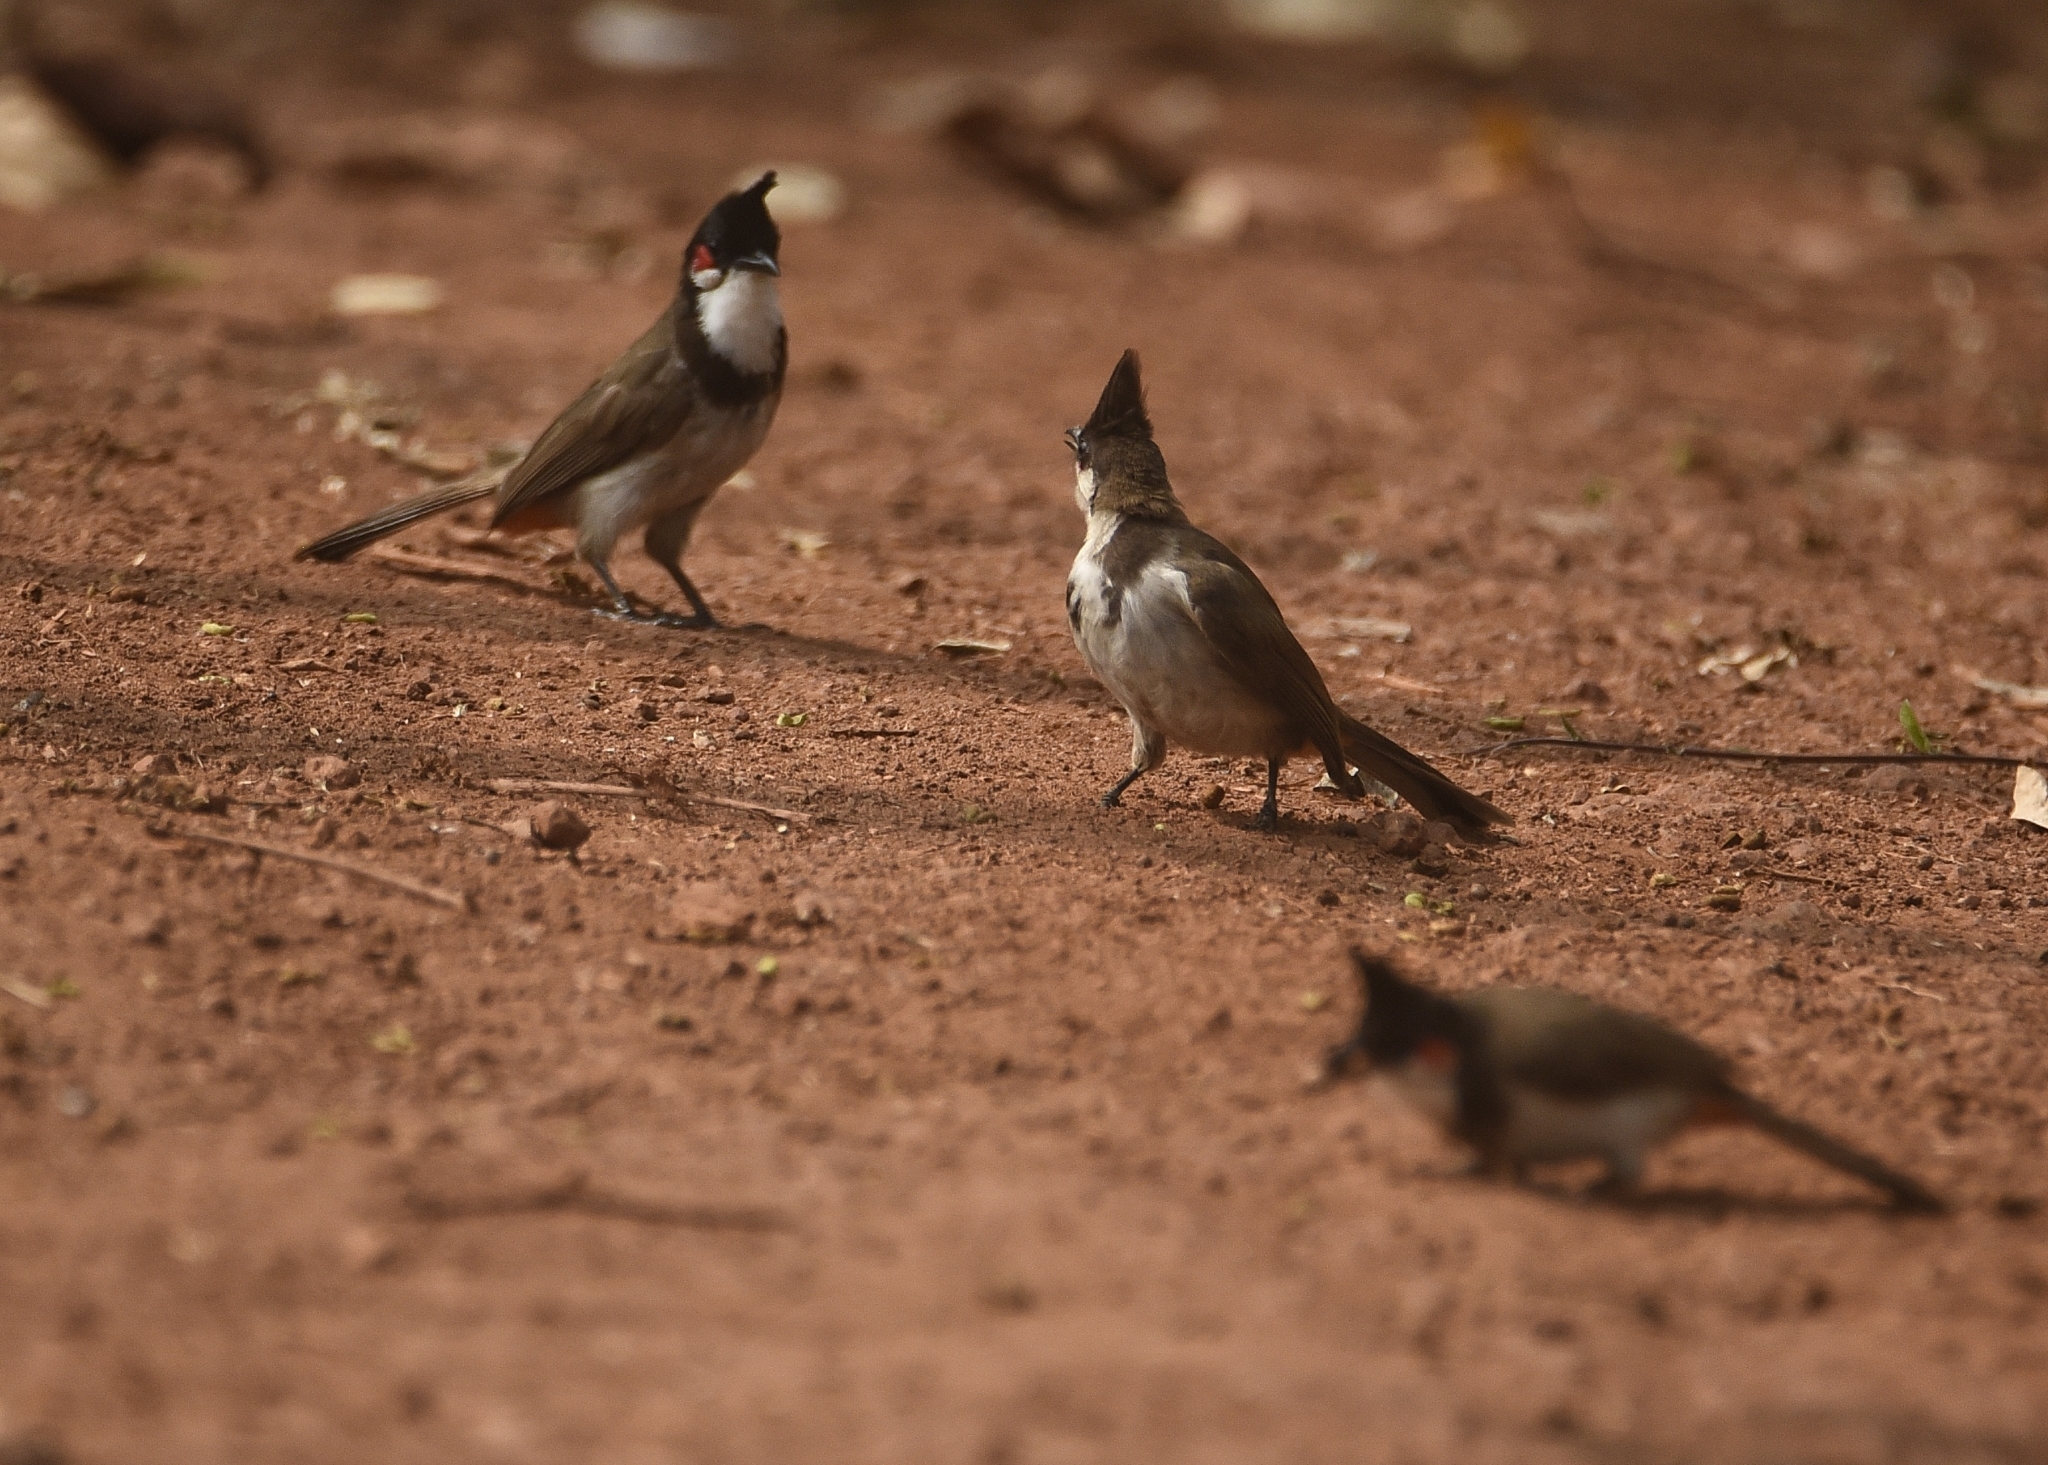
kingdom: Animalia
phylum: Chordata
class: Aves
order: Passeriformes
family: Pycnonotidae
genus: Pycnonotus
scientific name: Pycnonotus jocosus
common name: Red-whiskered bulbul
